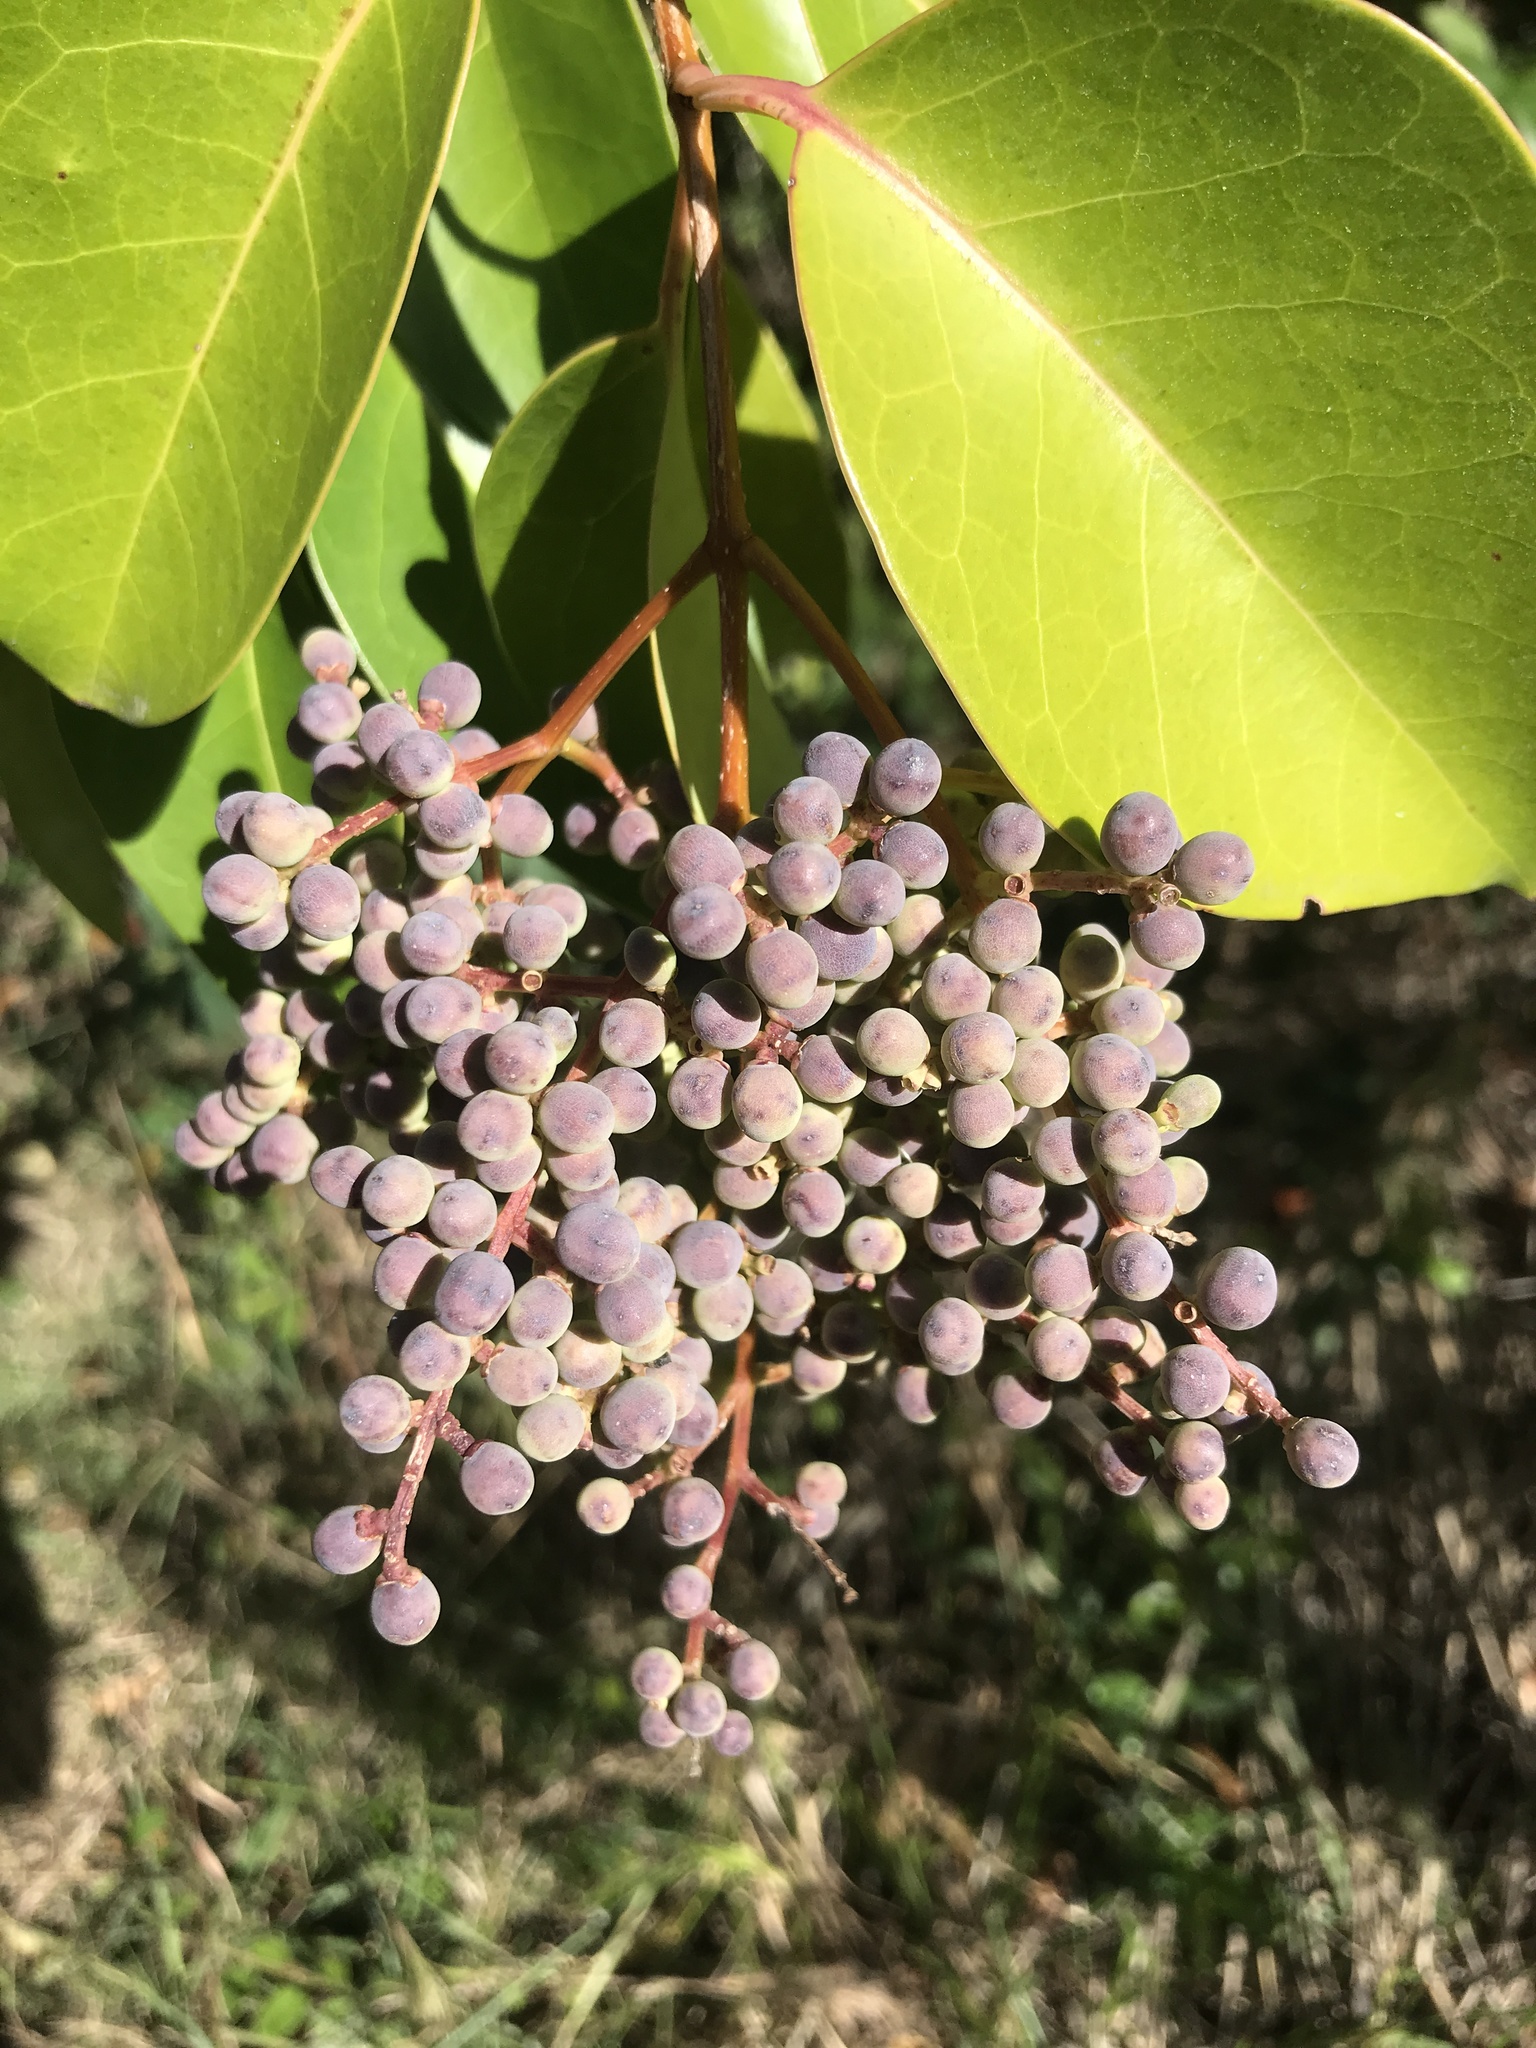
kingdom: Plantae
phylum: Tracheophyta
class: Magnoliopsida
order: Lamiales
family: Oleaceae
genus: Ligustrum
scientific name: Ligustrum lucidum
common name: Glossy privet
